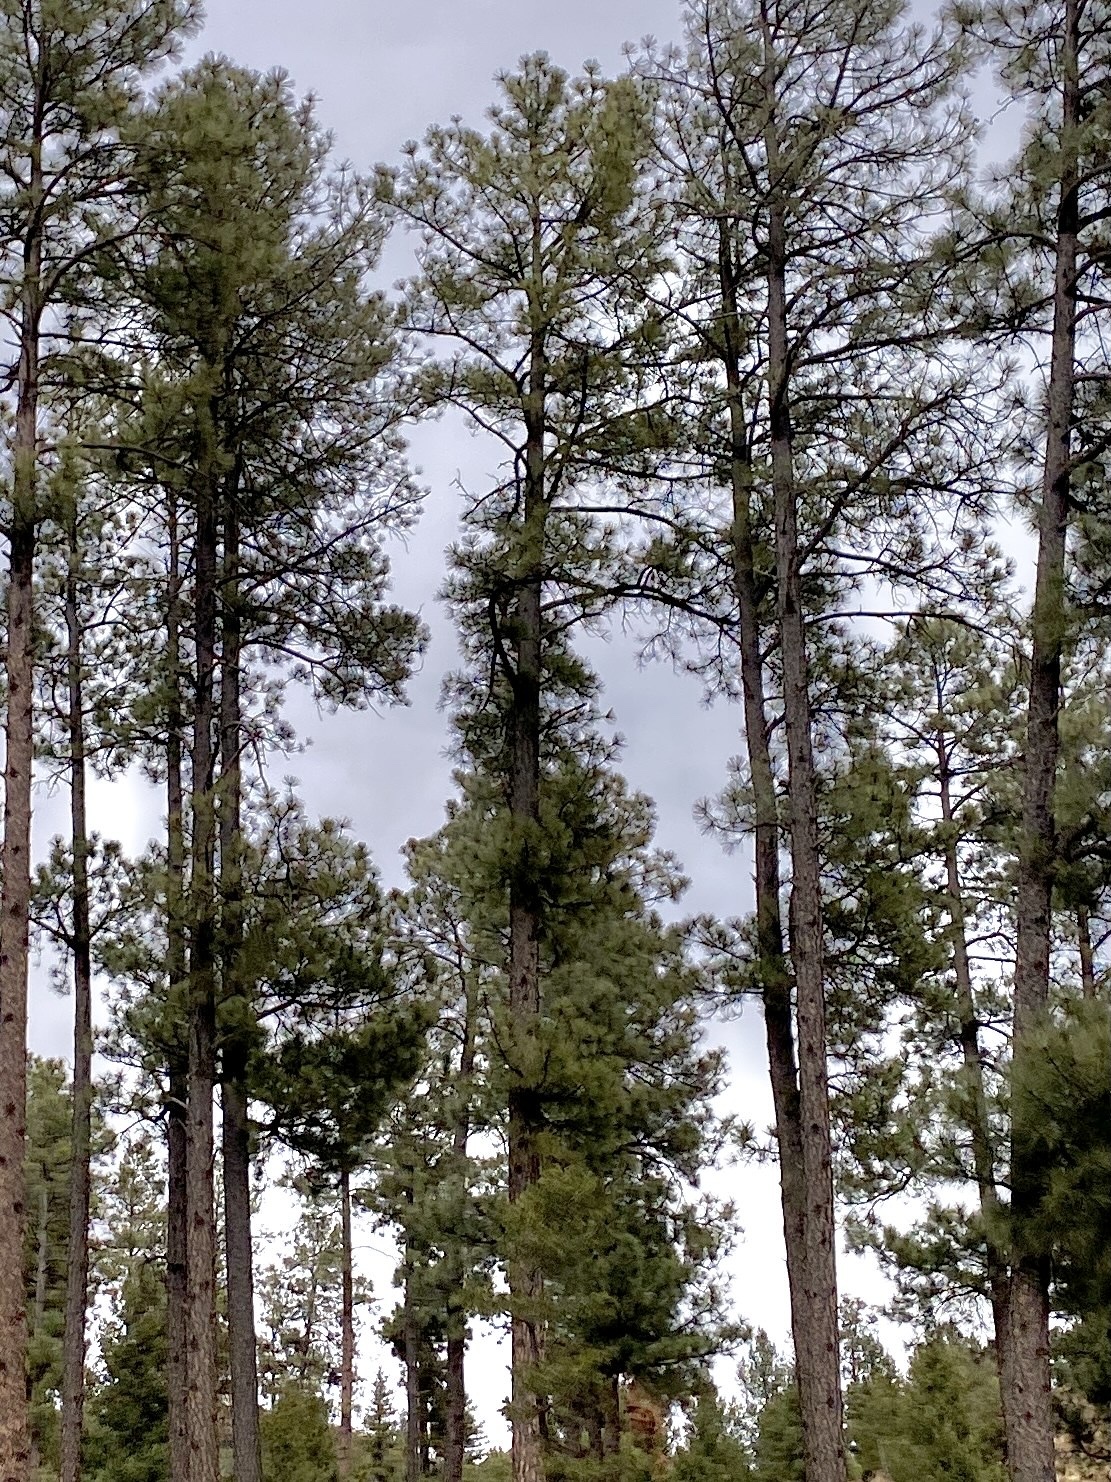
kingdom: Plantae
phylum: Tracheophyta
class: Pinopsida
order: Pinales
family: Pinaceae
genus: Pinus
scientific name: Pinus ponderosa
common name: Western yellow-pine
